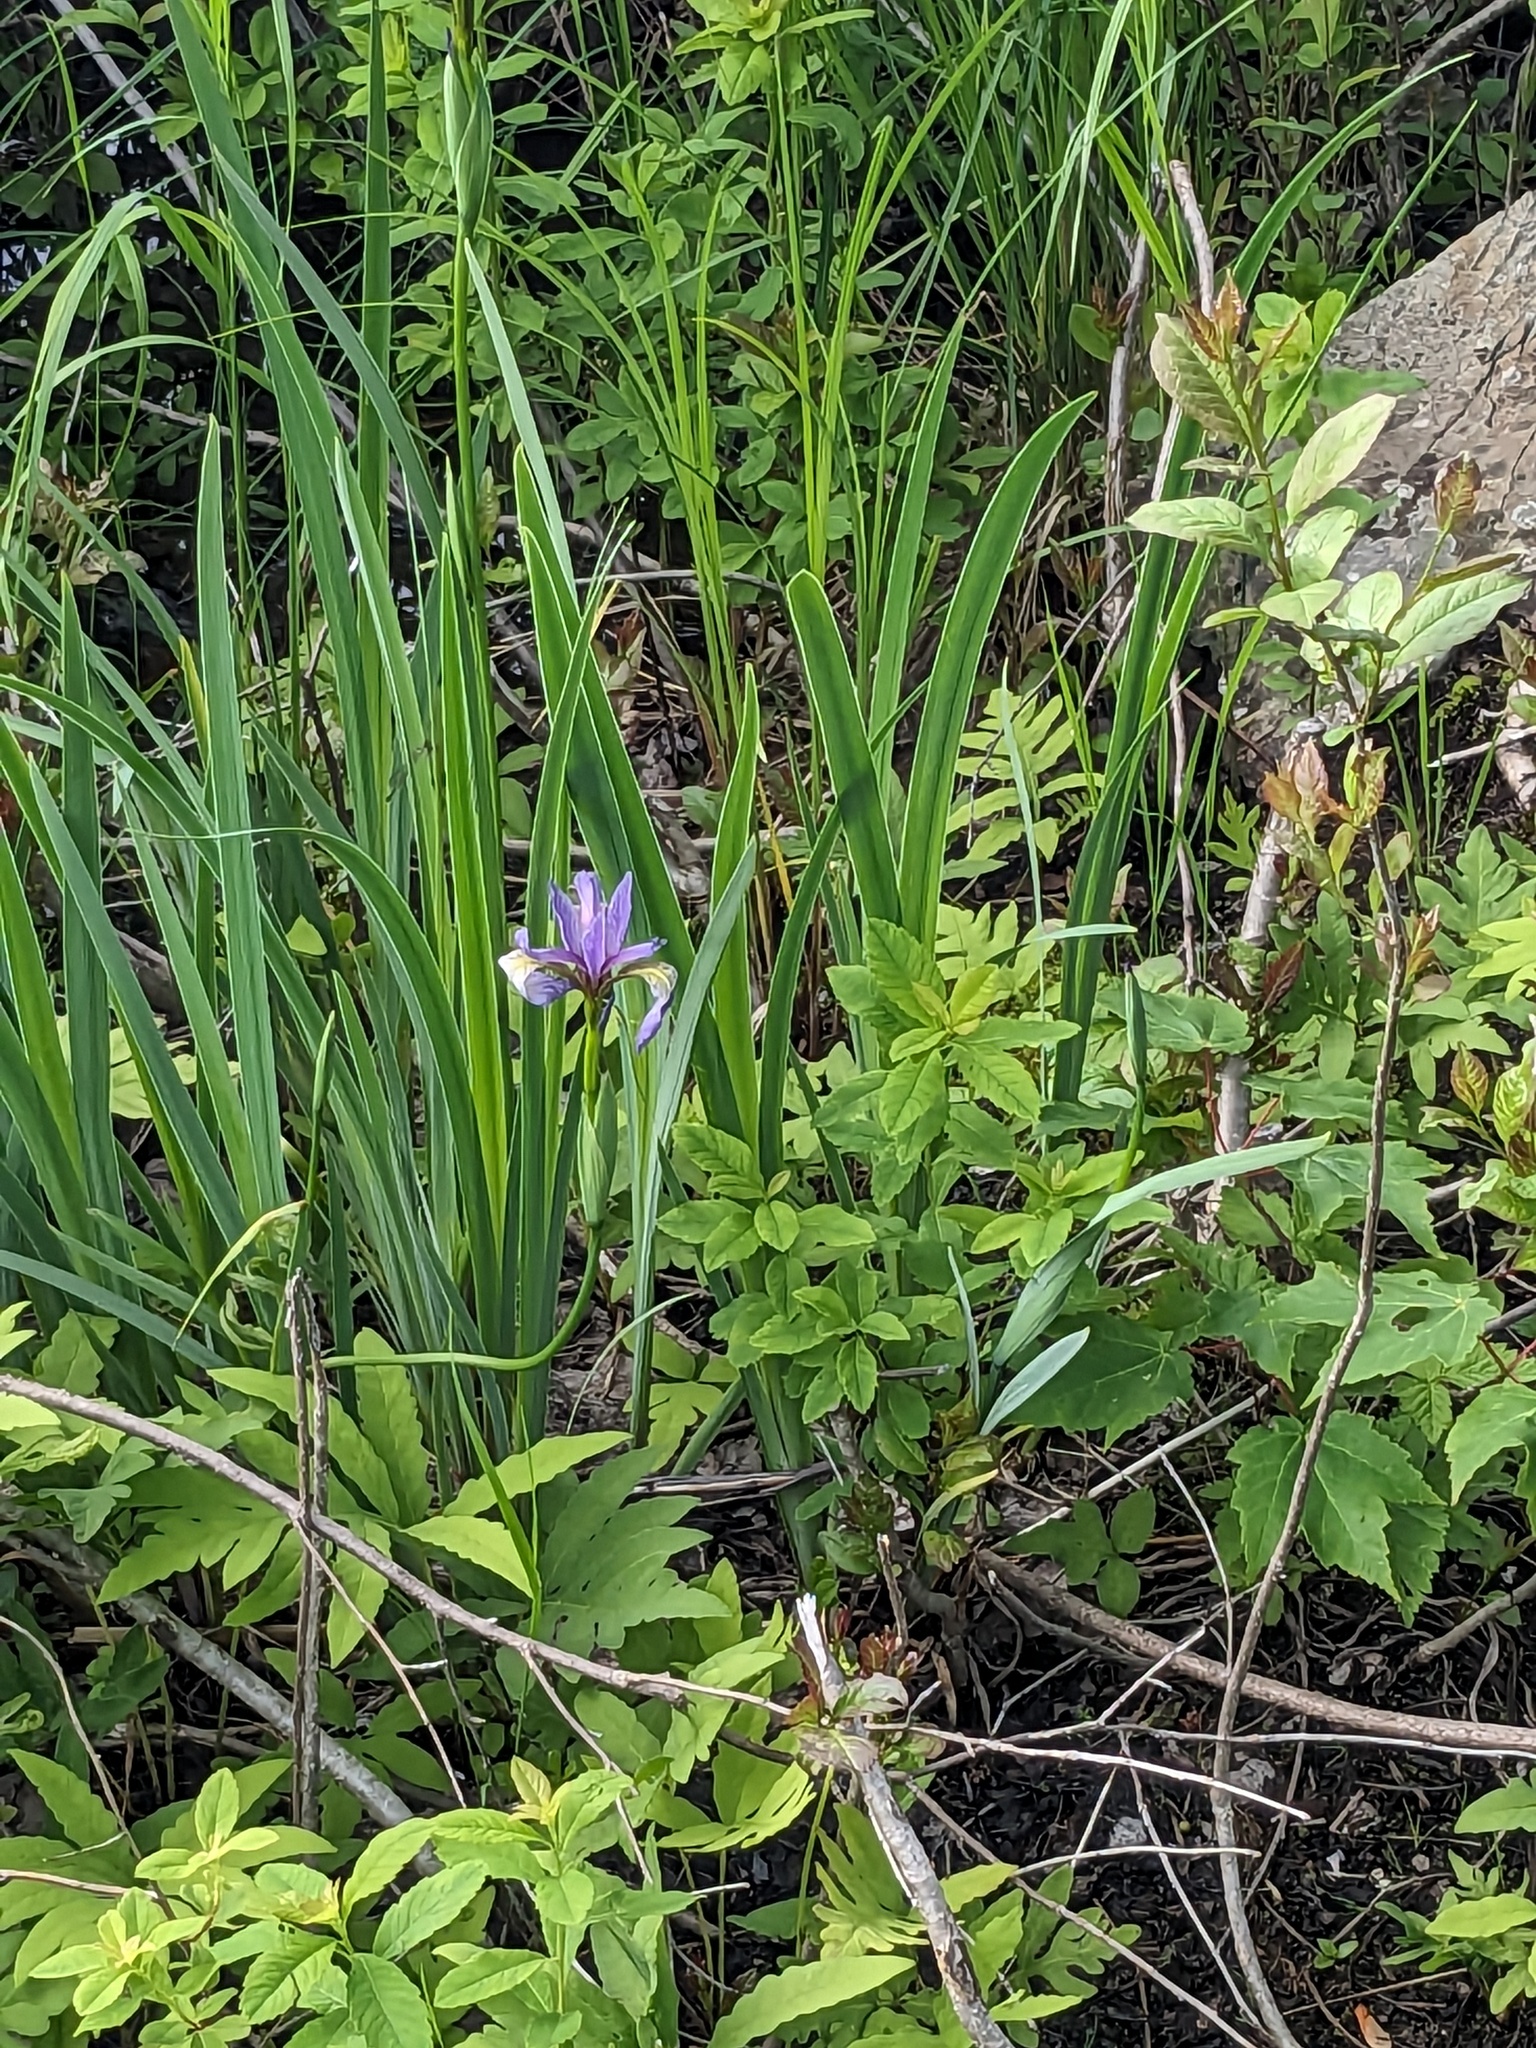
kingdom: Plantae
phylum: Tracheophyta
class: Liliopsida
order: Asparagales
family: Iridaceae
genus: Iris
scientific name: Iris versicolor
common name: Purple iris
